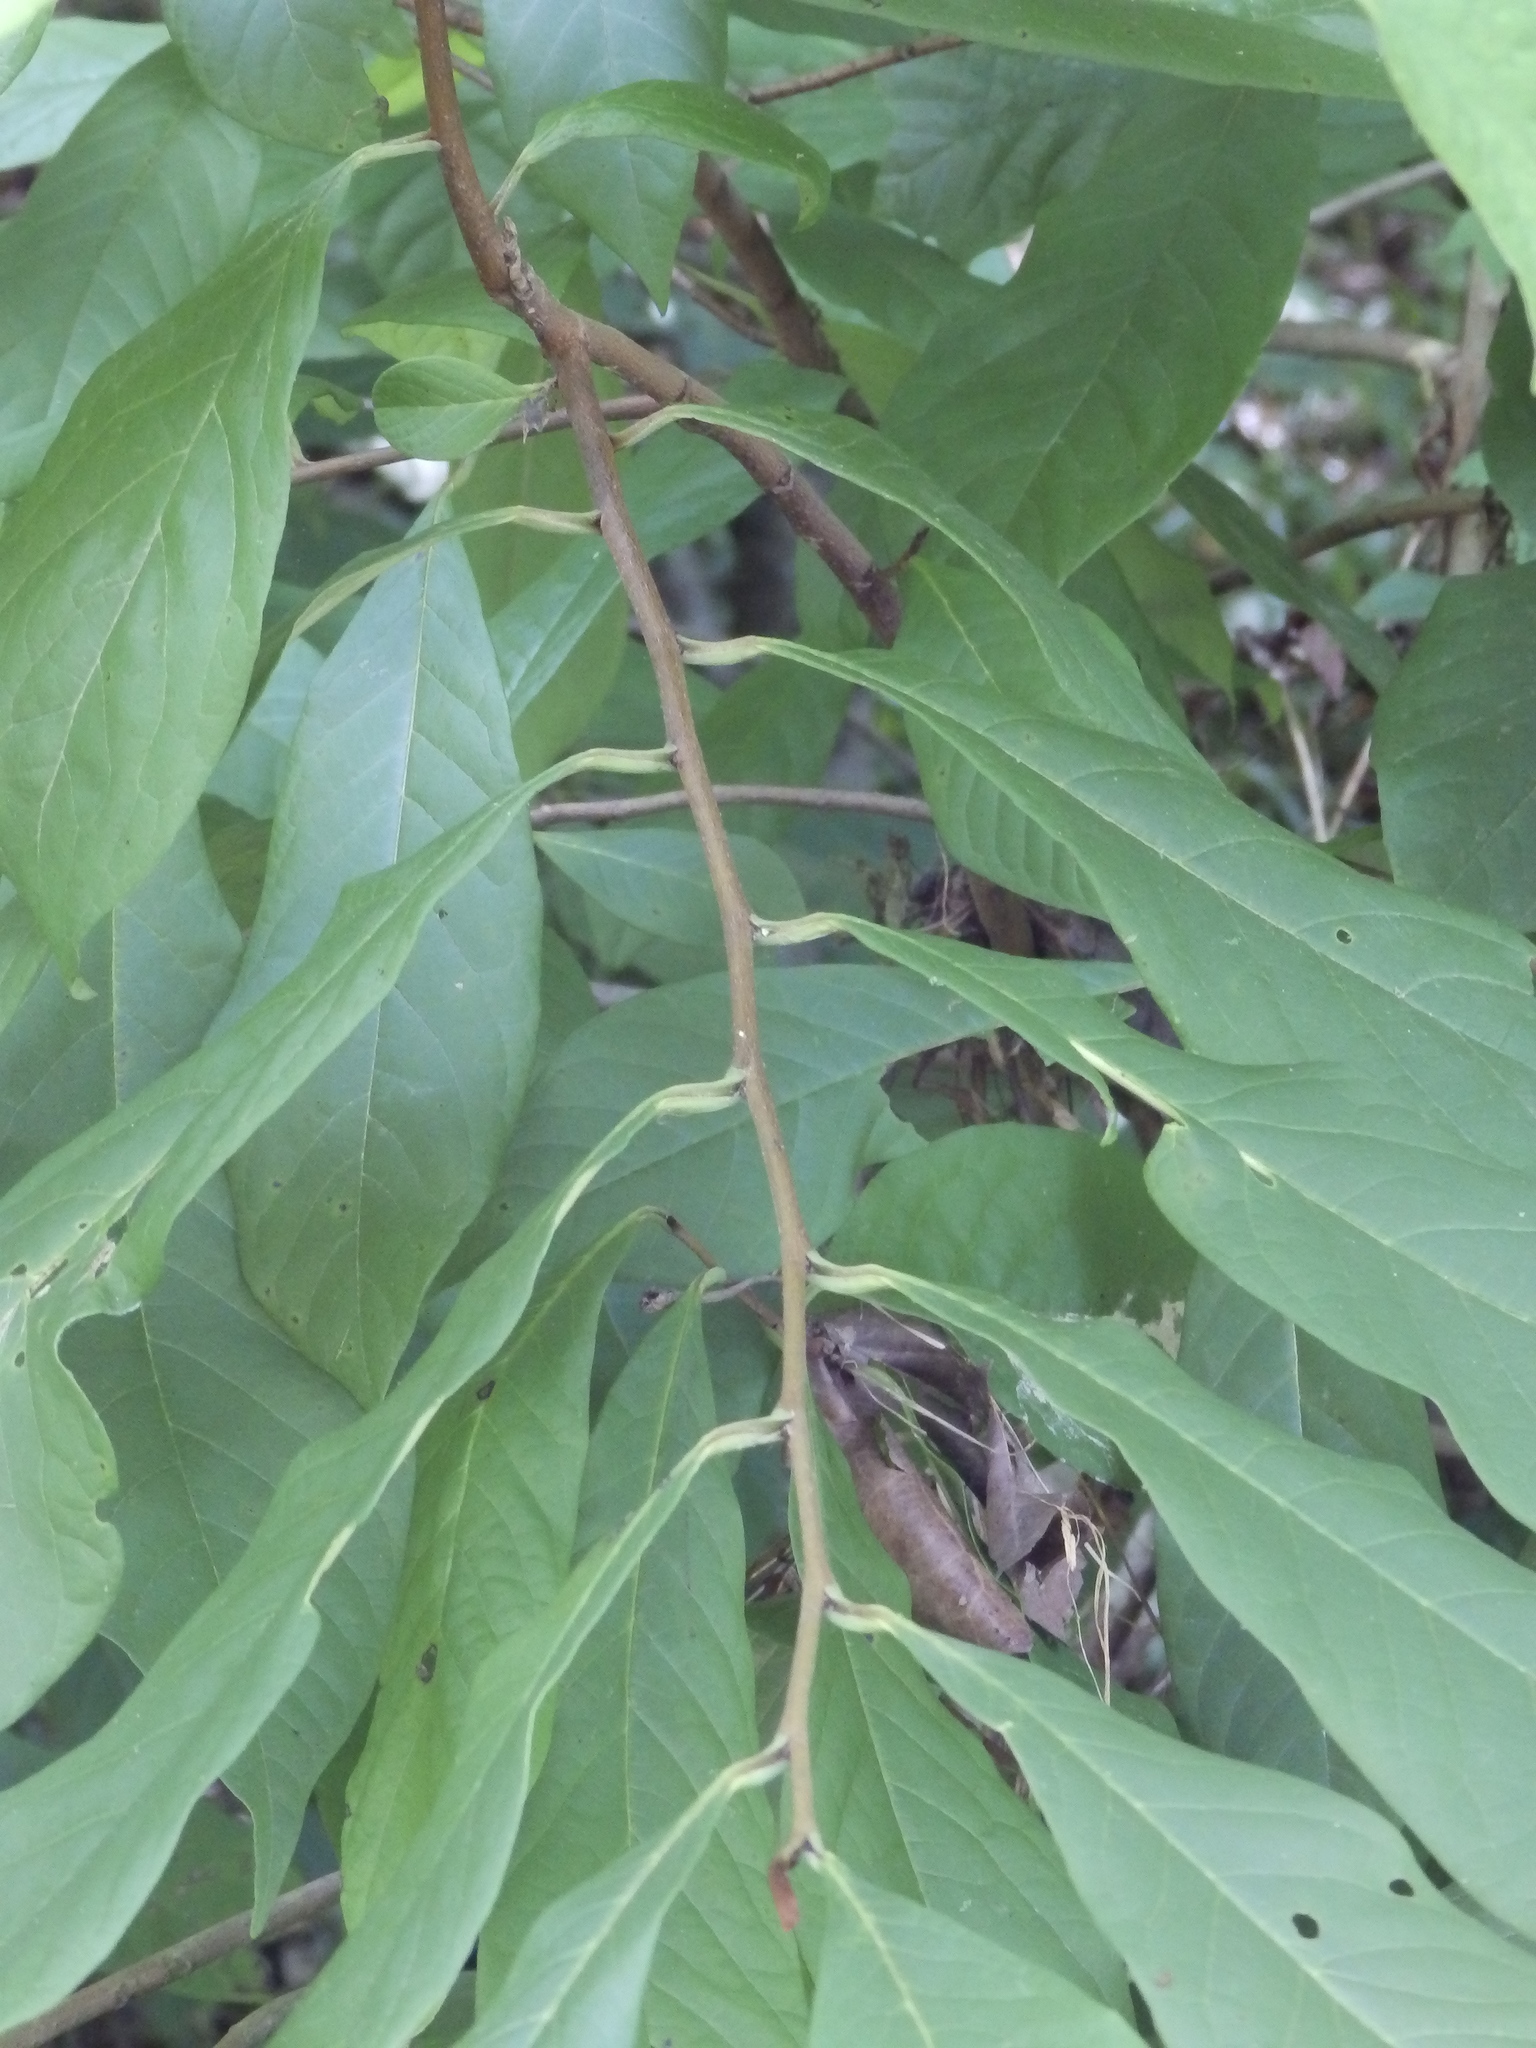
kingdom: Plantae
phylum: Tracheophyta
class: Magnoliopsida
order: Magnoliales
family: Annonaceae
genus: Asimina
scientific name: Asimina triloba
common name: Dog-banana
